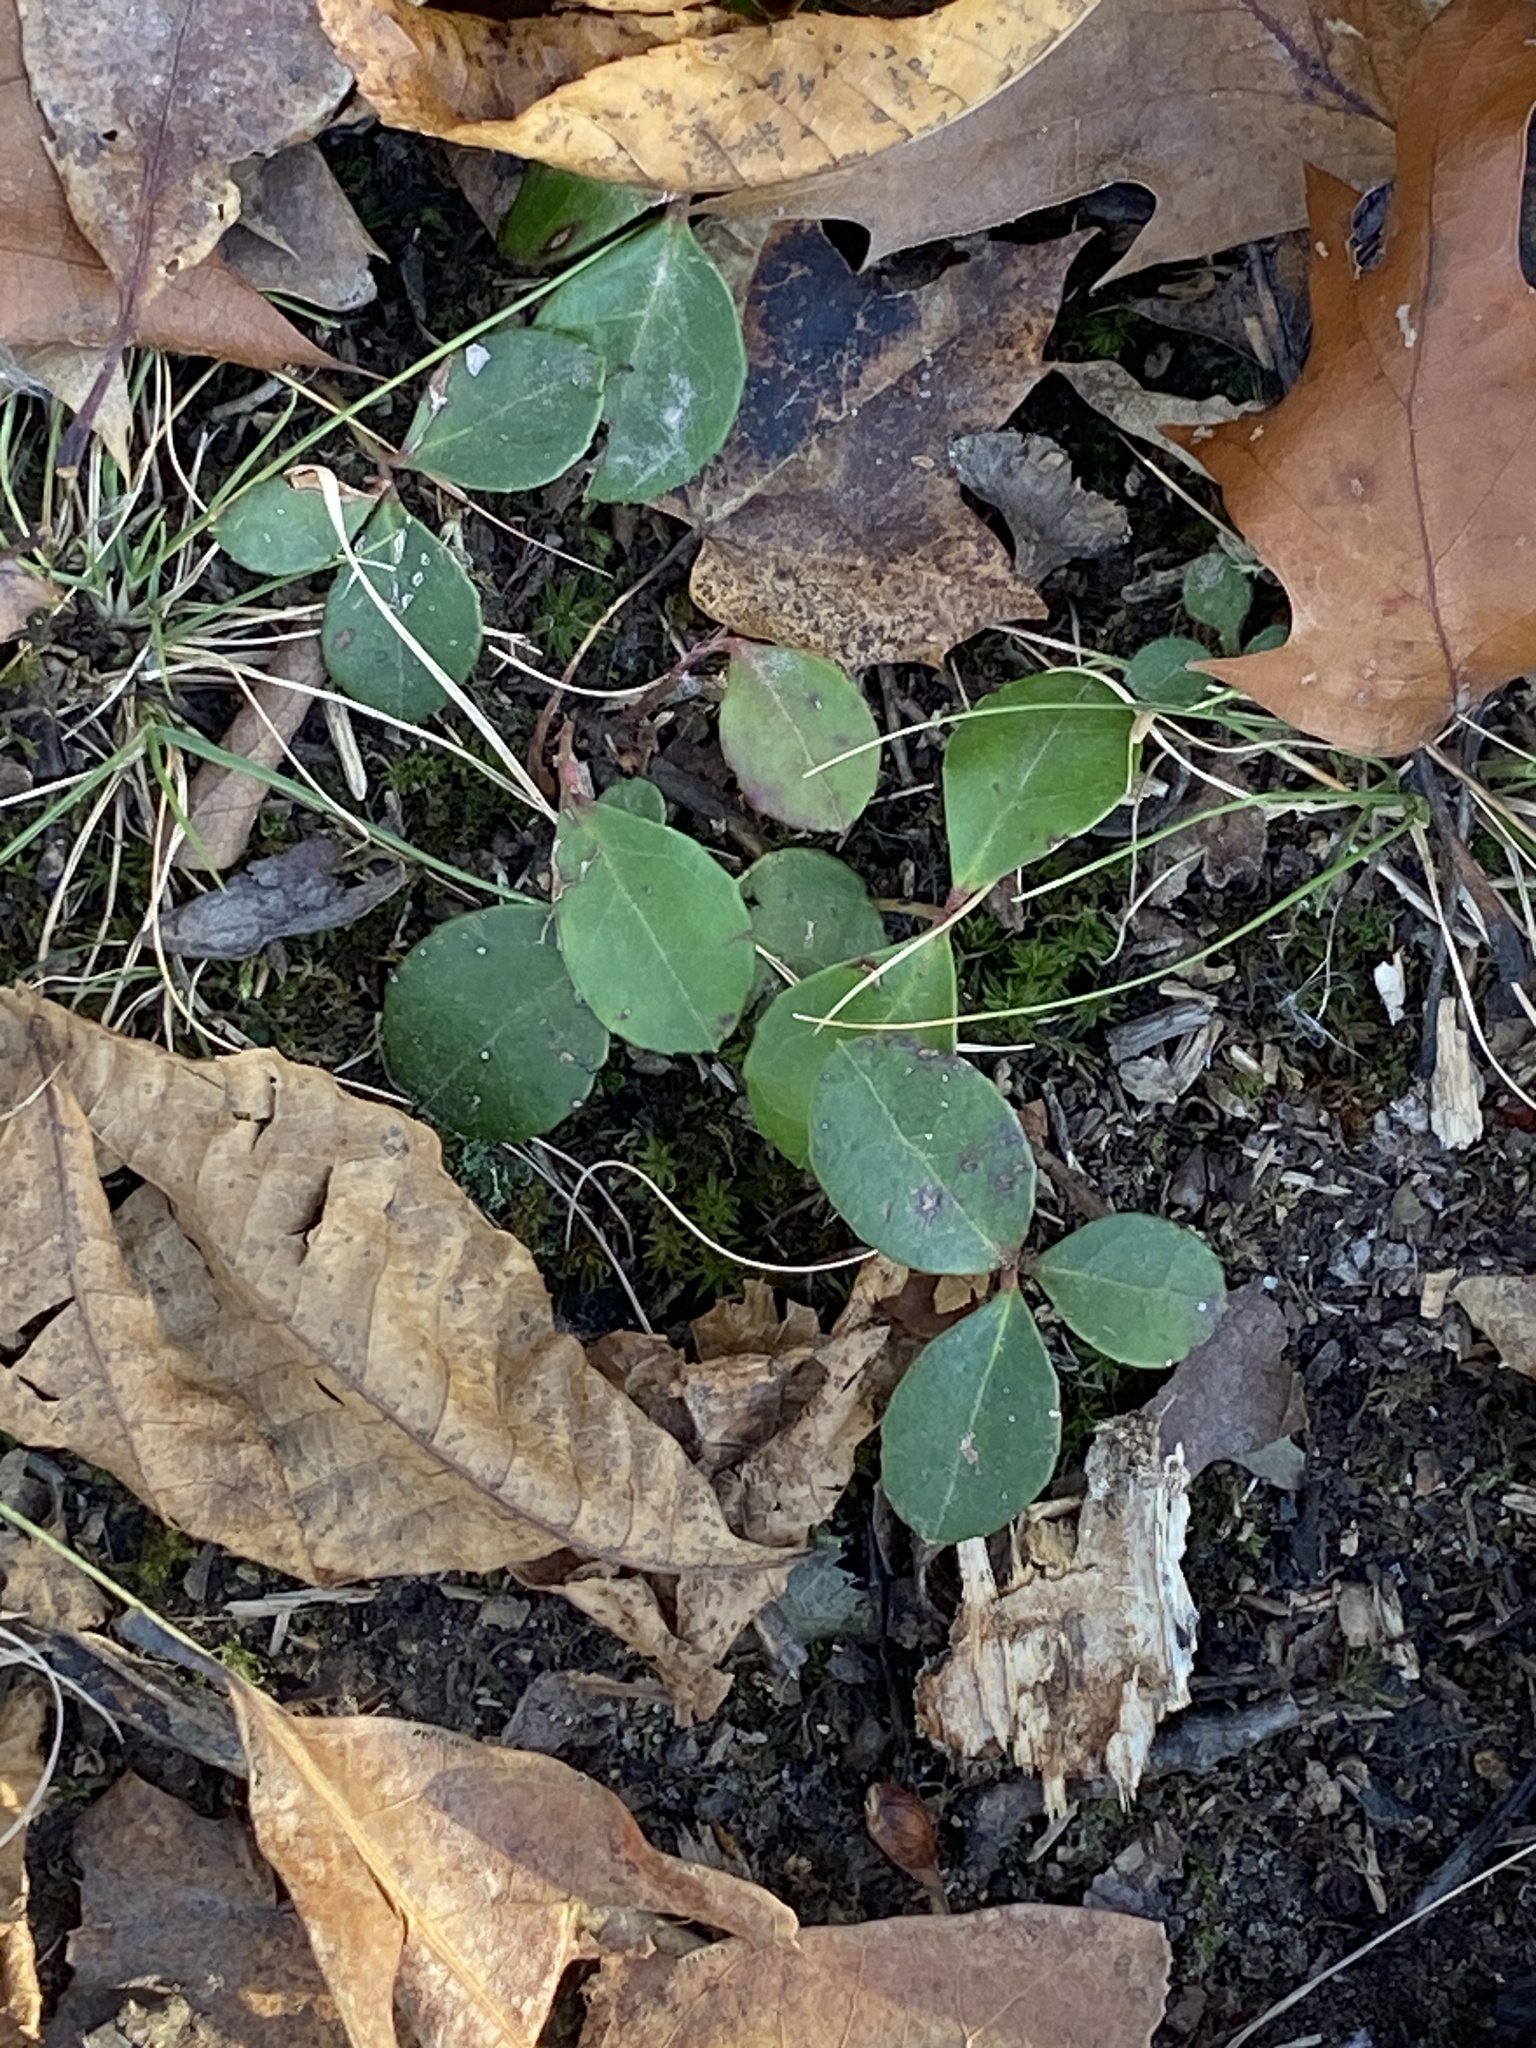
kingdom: Plantae
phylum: Tracheophyta
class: Magnoliopsida
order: Ericales
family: Ericaceae
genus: Gaultheria
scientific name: Gaultheria procumbens
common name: Checkerberry
